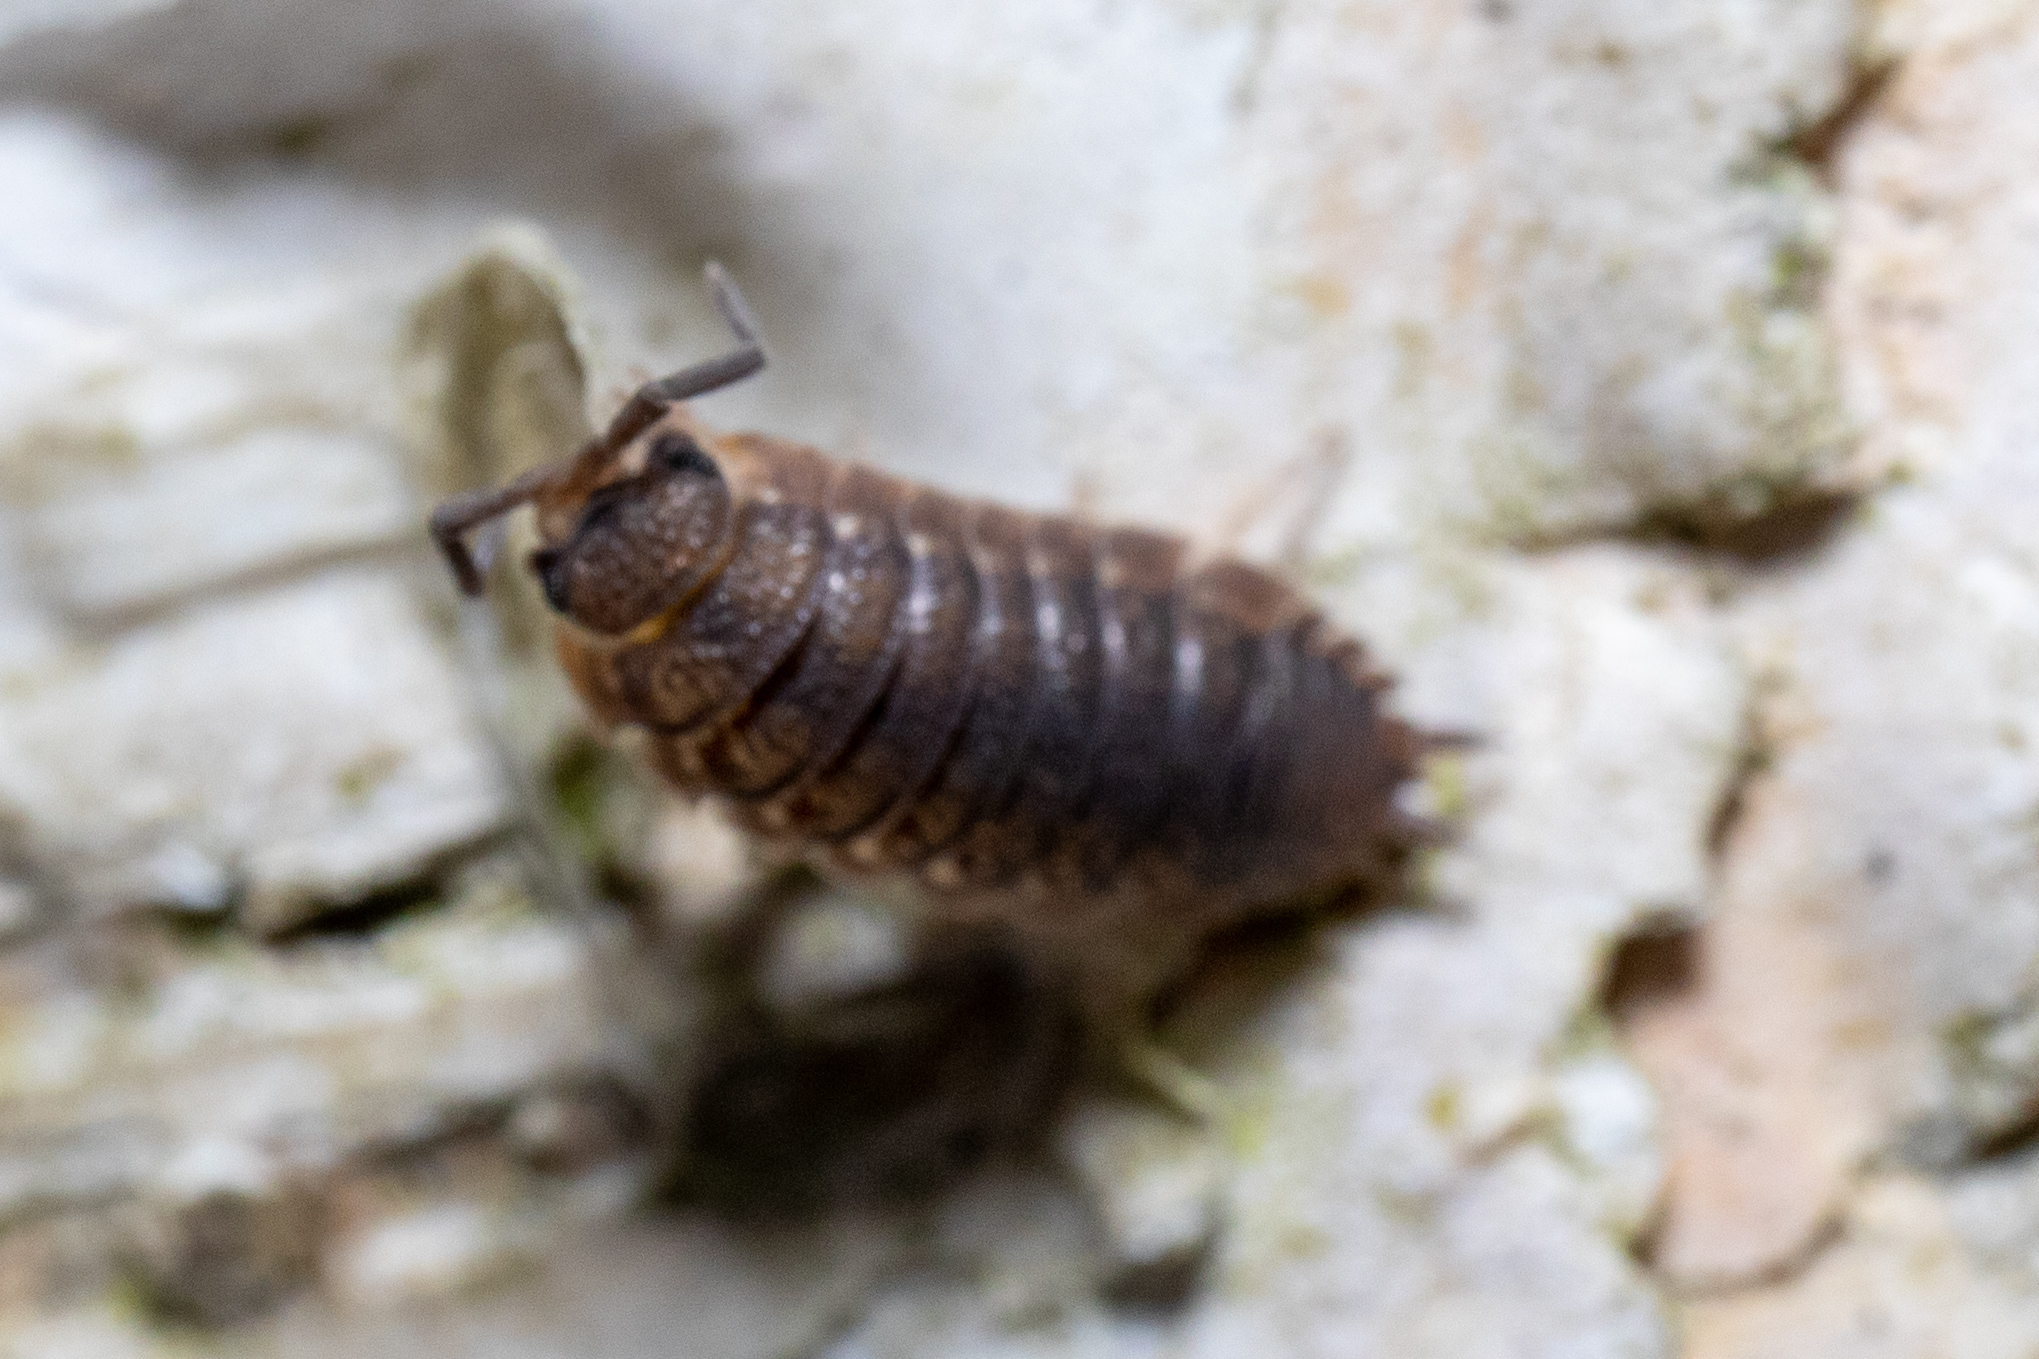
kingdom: Animalia
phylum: Arthropoda
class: Malacostraca
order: Isopoda
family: Porcellionidae
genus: Porcellio
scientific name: Porcellio scaber
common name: Common rough woodlouse
